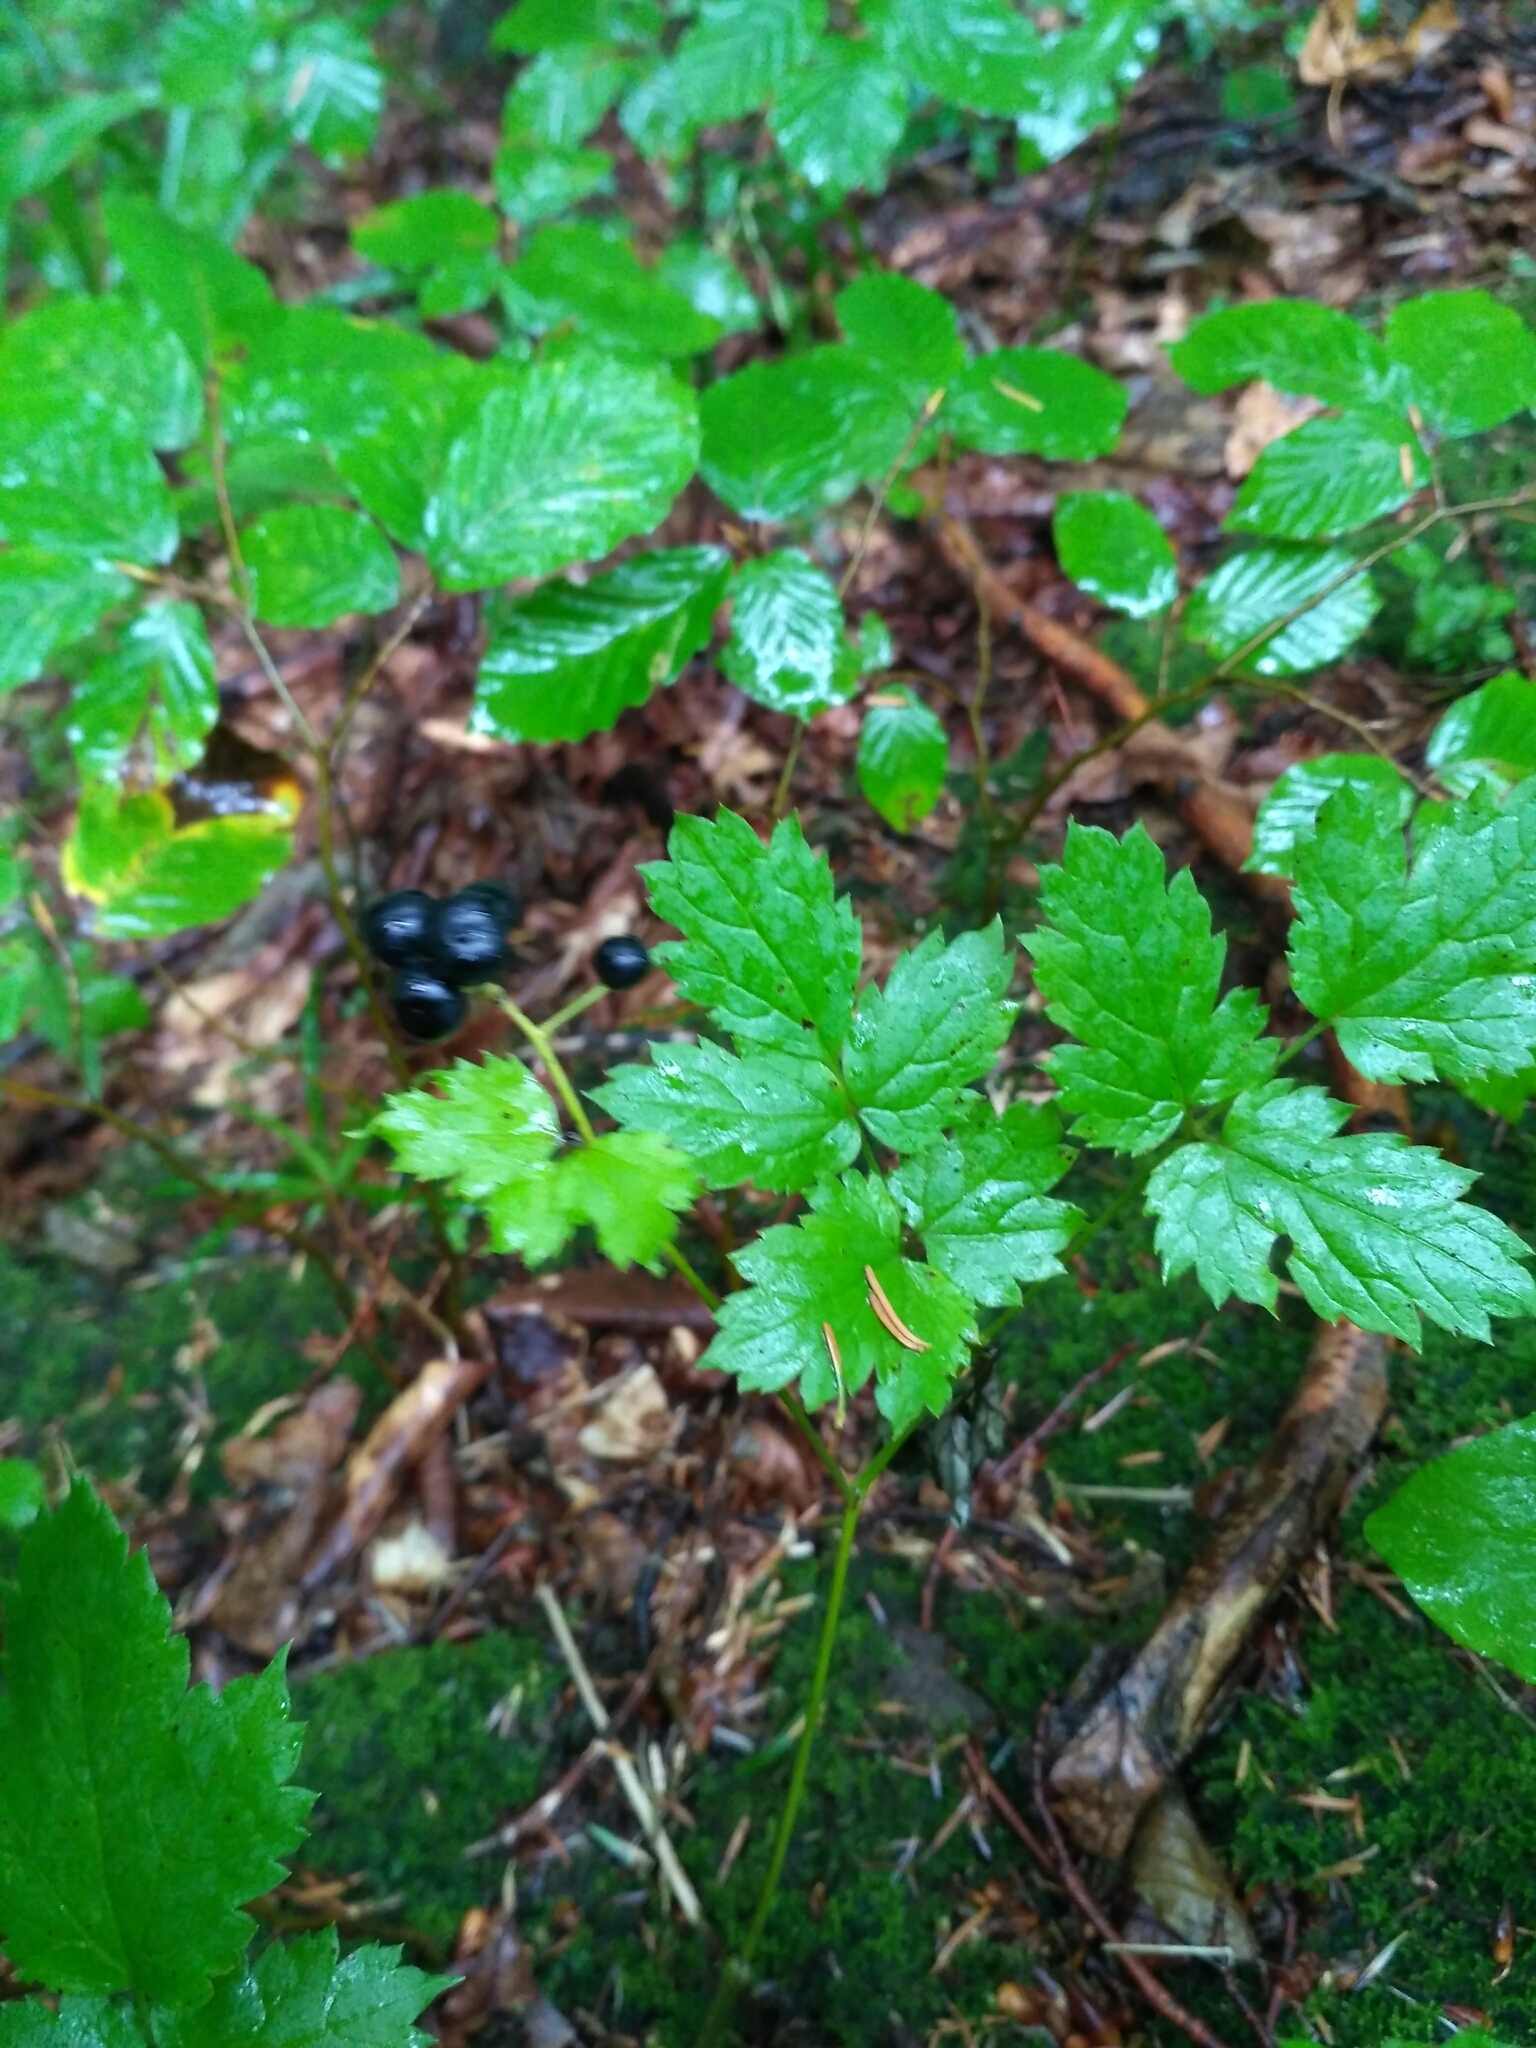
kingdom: Plantae
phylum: Tracheophyta
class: Magnoliopsida
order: Ranunculales
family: Ranunculaceae
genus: Actaea
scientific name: Actaea spicata
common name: Baneberry
